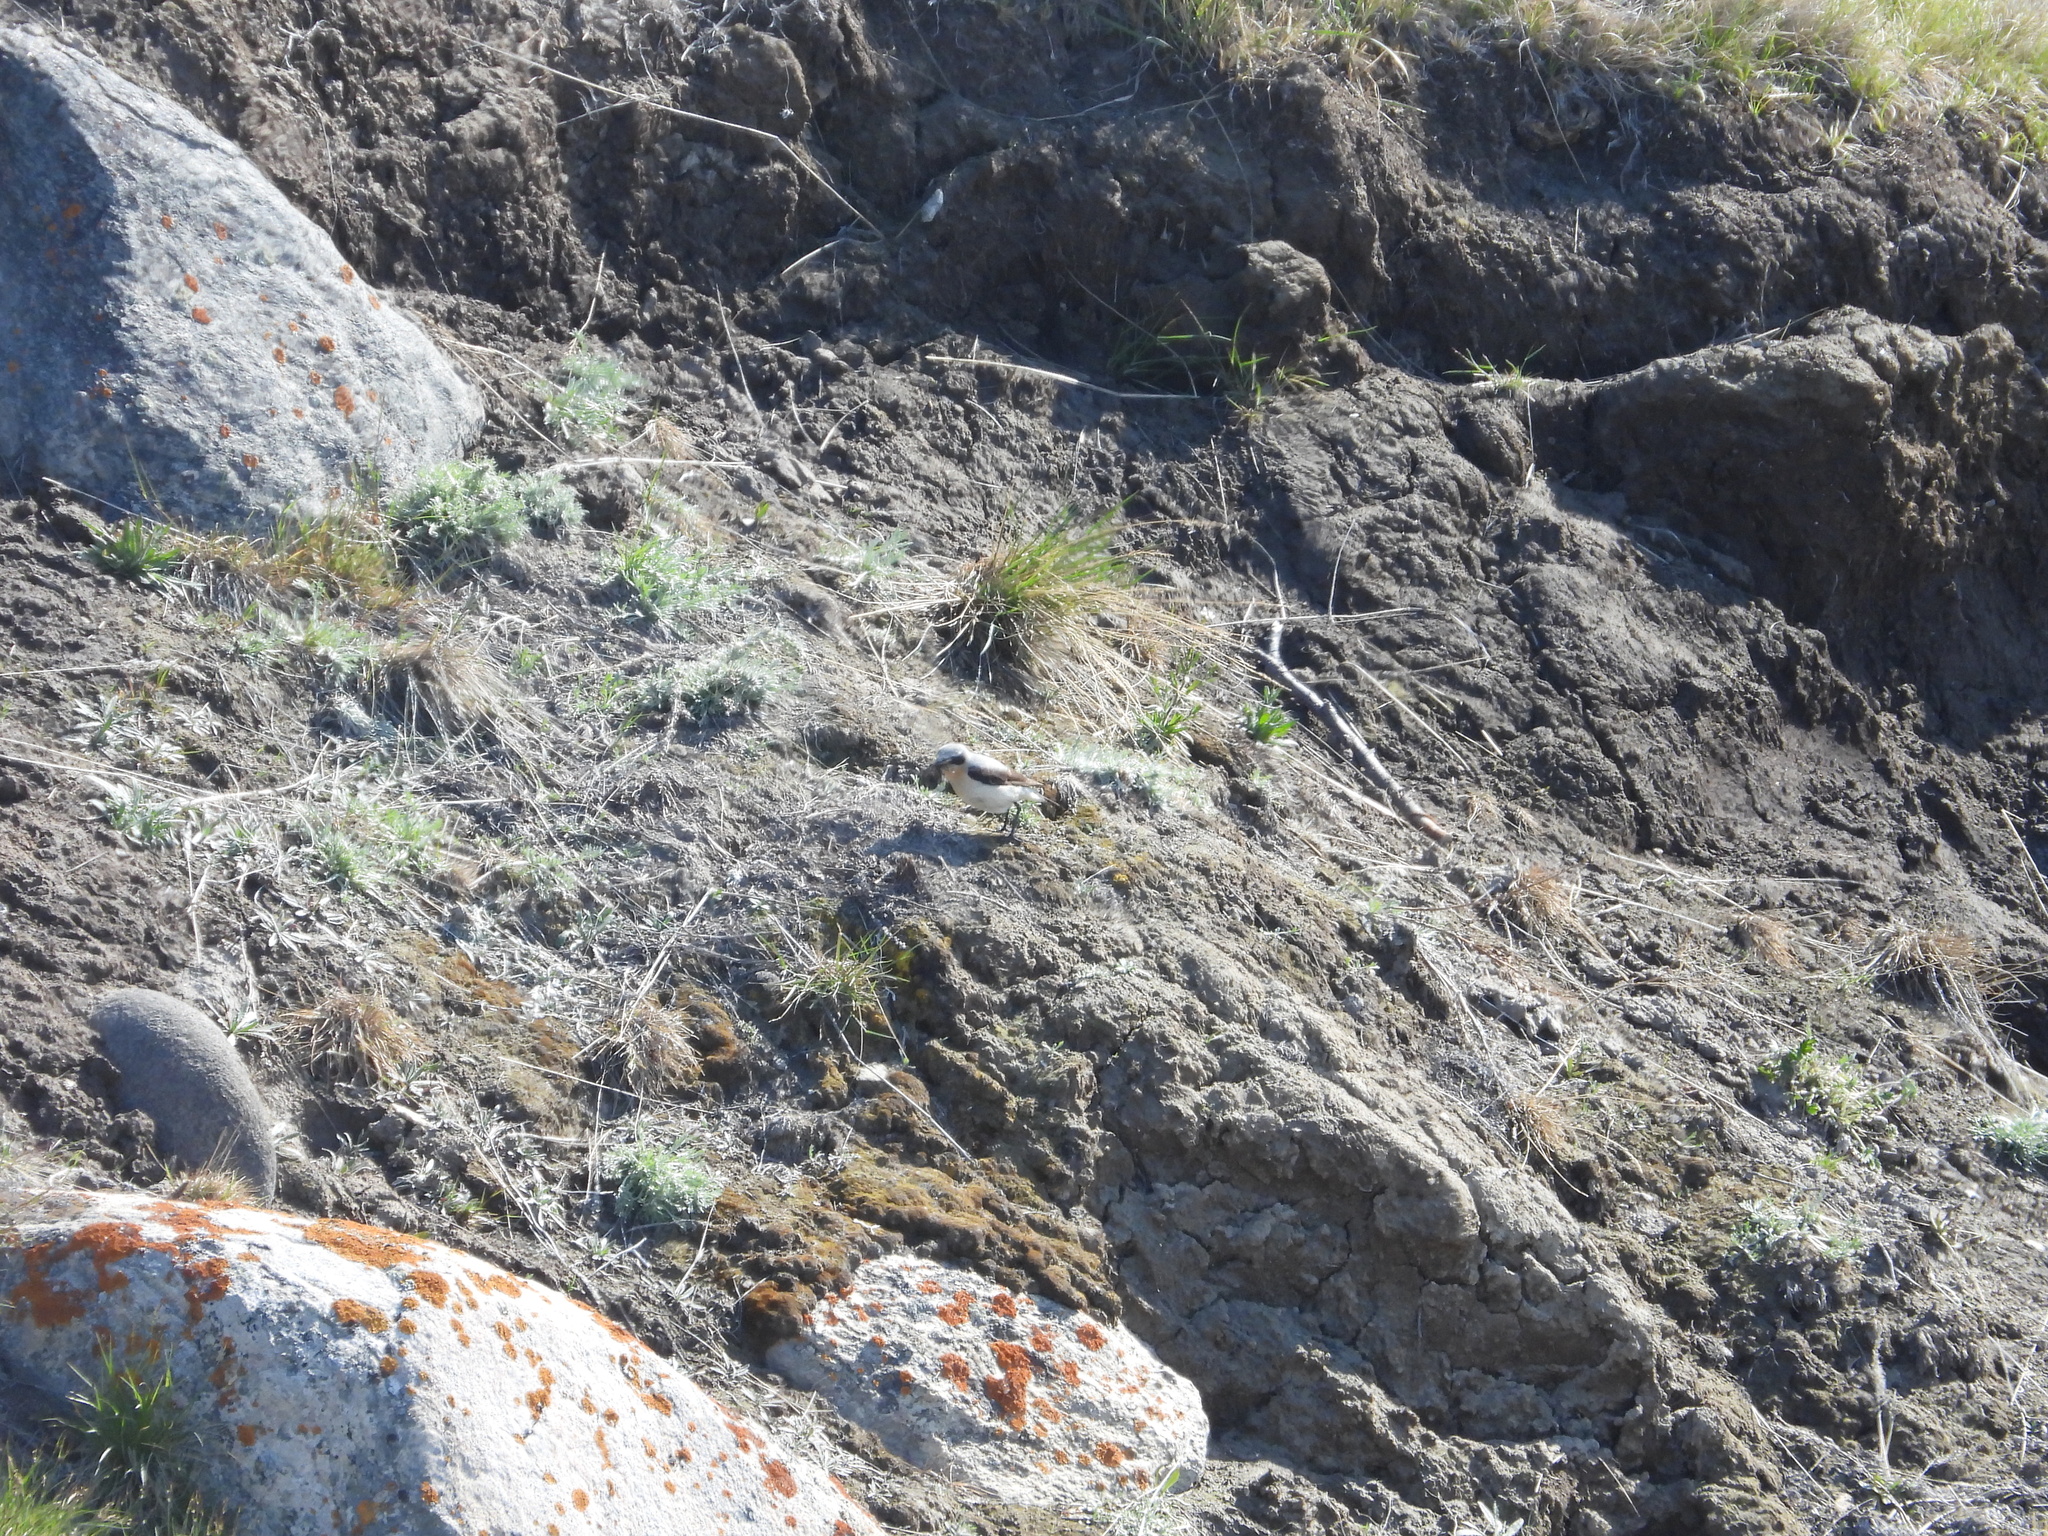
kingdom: Animalia
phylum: Chordata
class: Aves
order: Passeriformes
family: Muscicapidae
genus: Oenanthe
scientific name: Oenanthe oenanthe
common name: Northern wheatear
